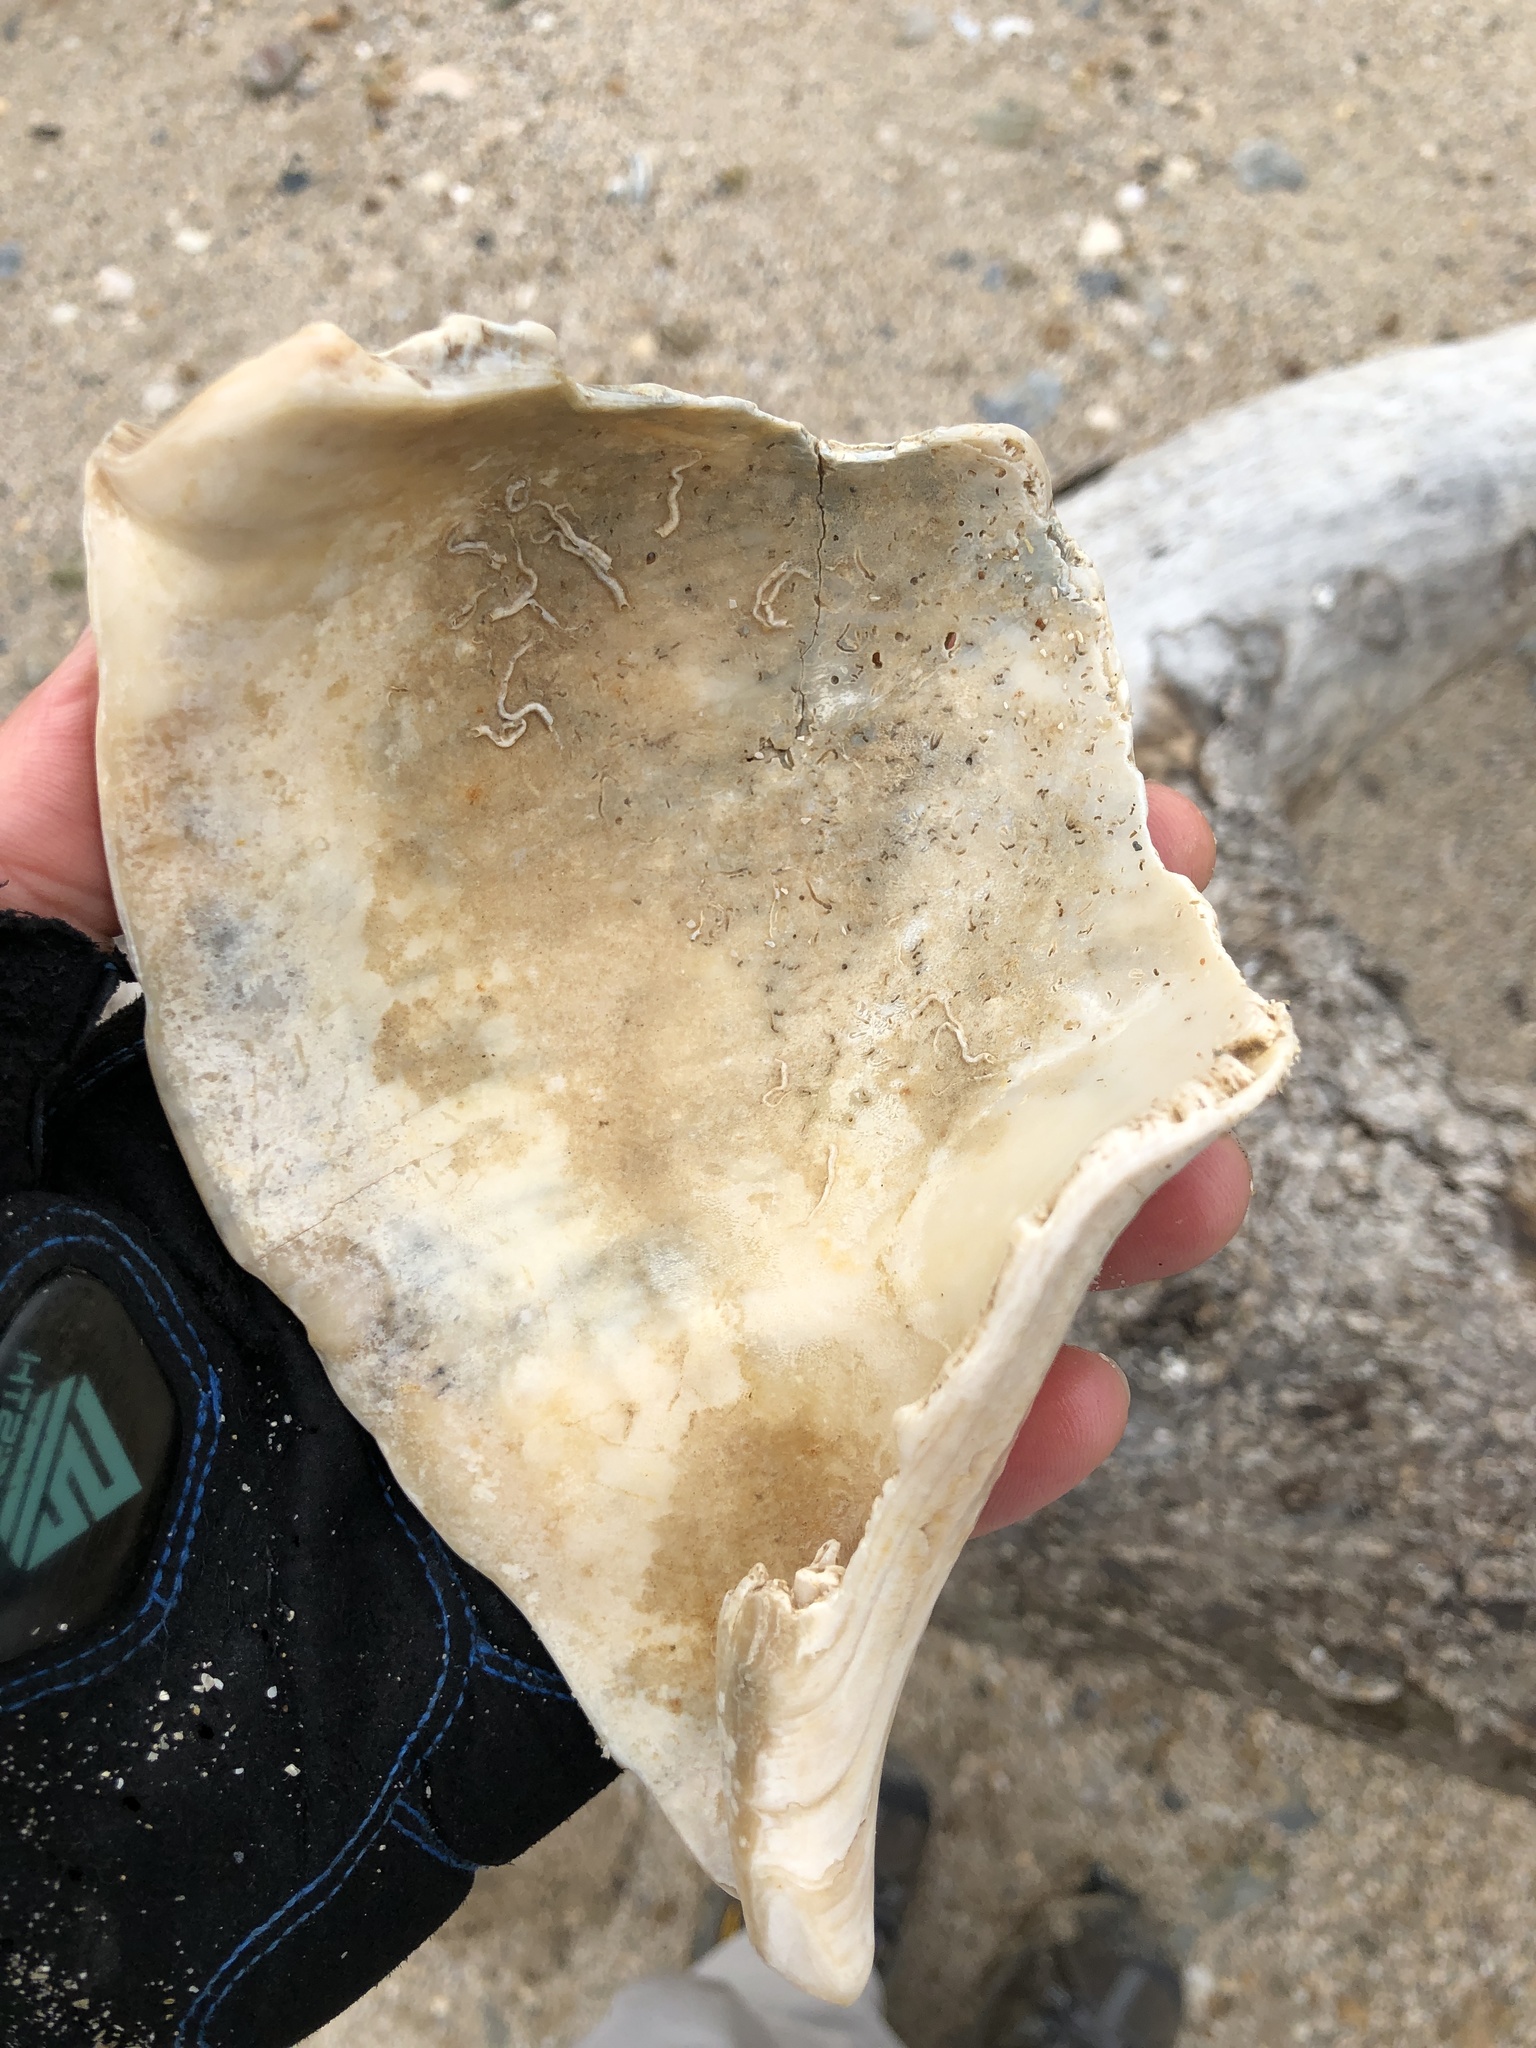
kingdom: Animalia
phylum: Mollusca
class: Gastropoda
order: Neogastropoda
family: Busyconidae
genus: Sinistrofulgur
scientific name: Sinistrofulgur pulleyi
